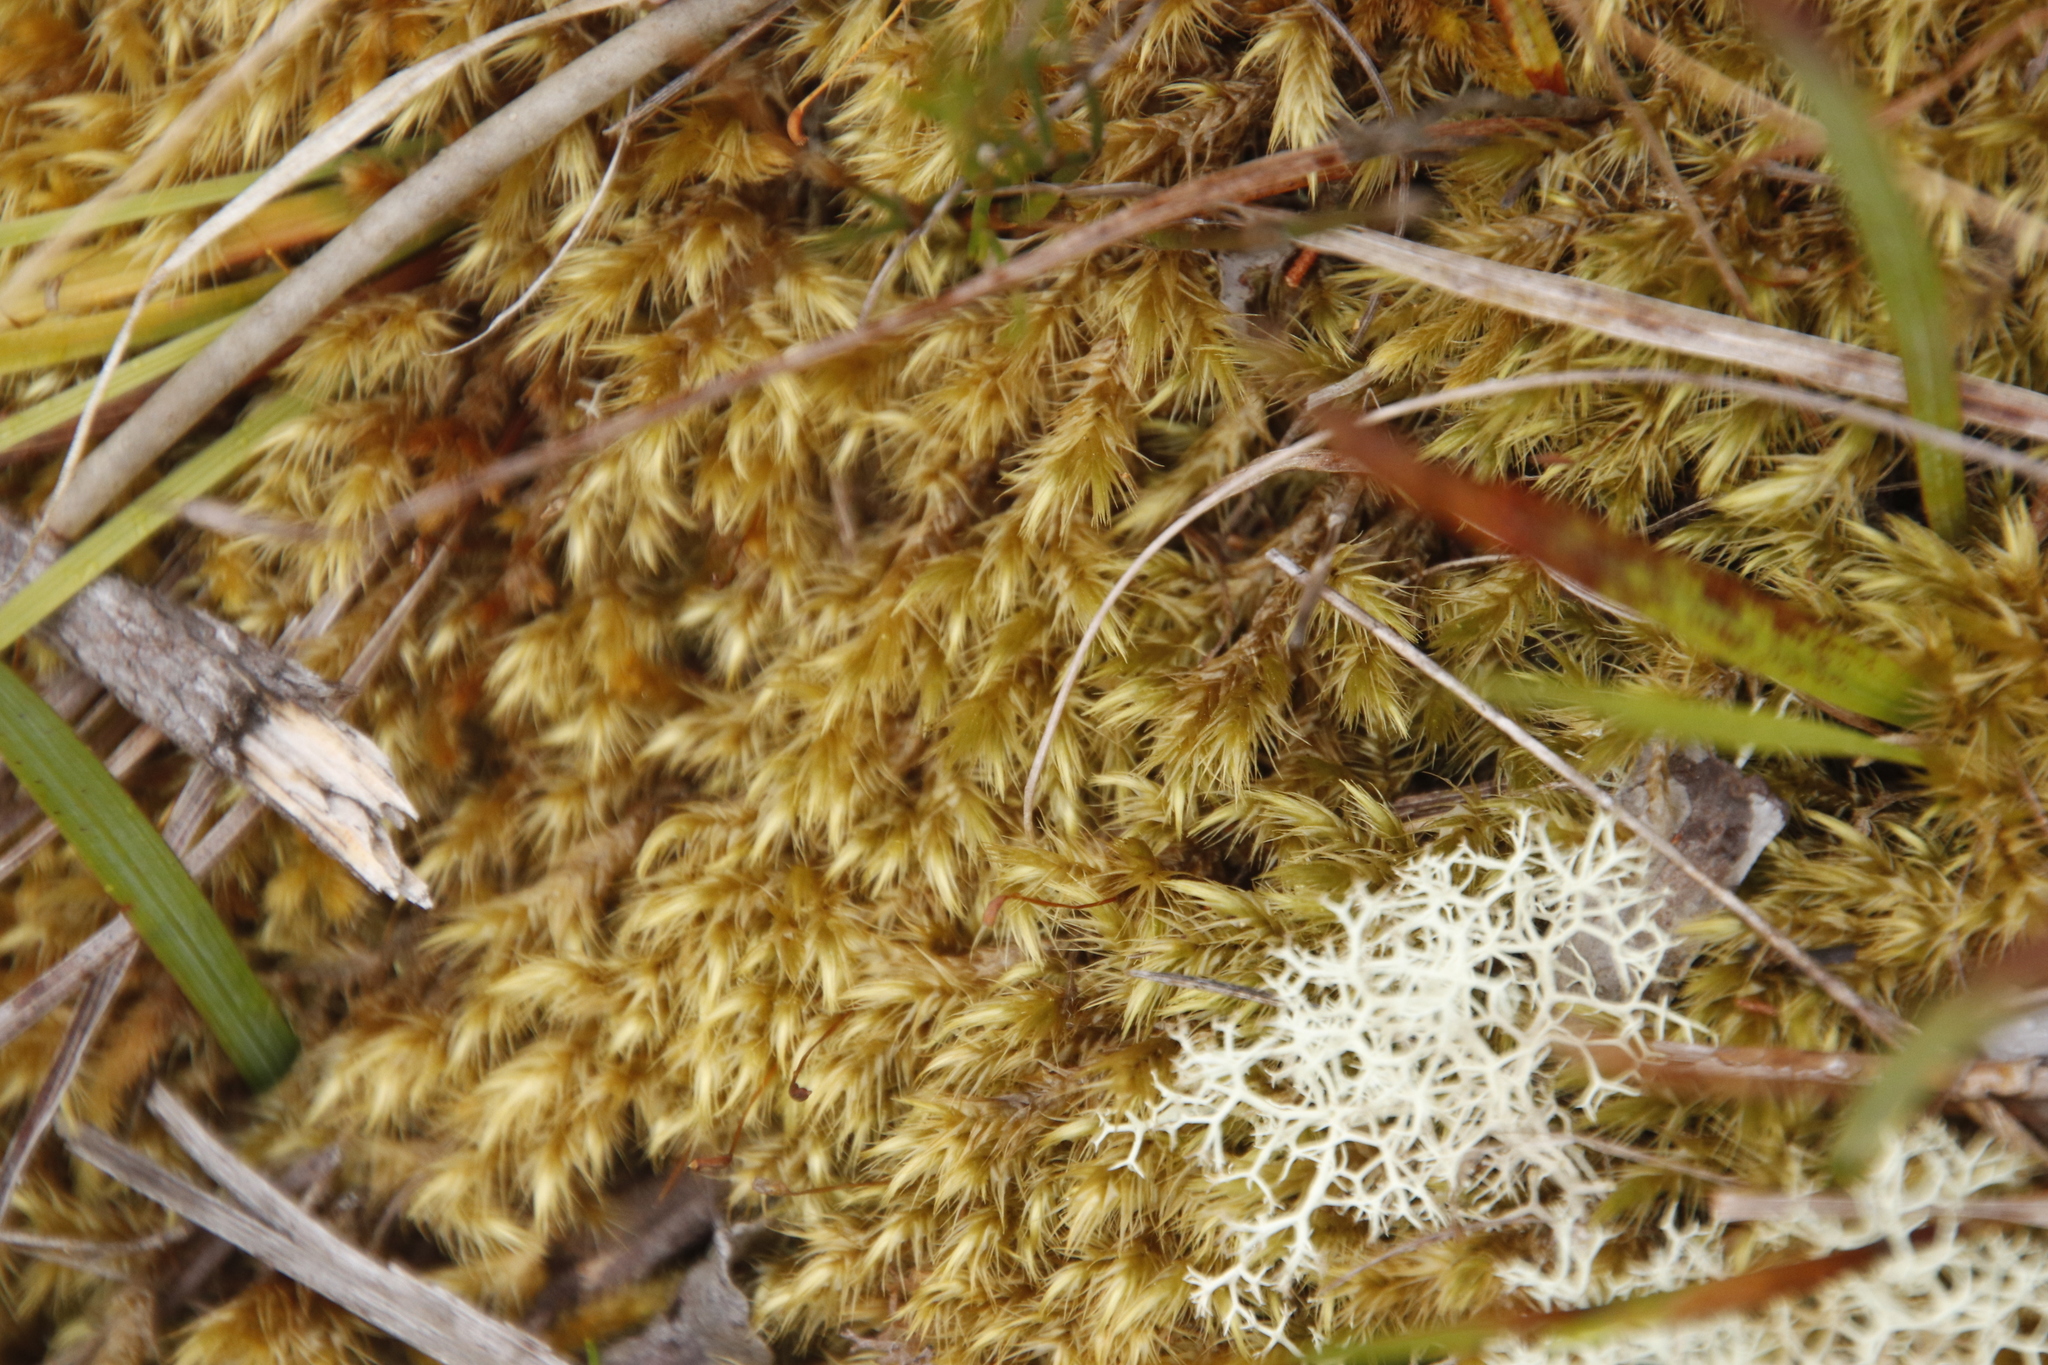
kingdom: Plantae
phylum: Bryophyta
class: Bryopsida
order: Dicranales
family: Dicranaceae
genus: Dicranoloma
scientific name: Dicranoloma billardieri
